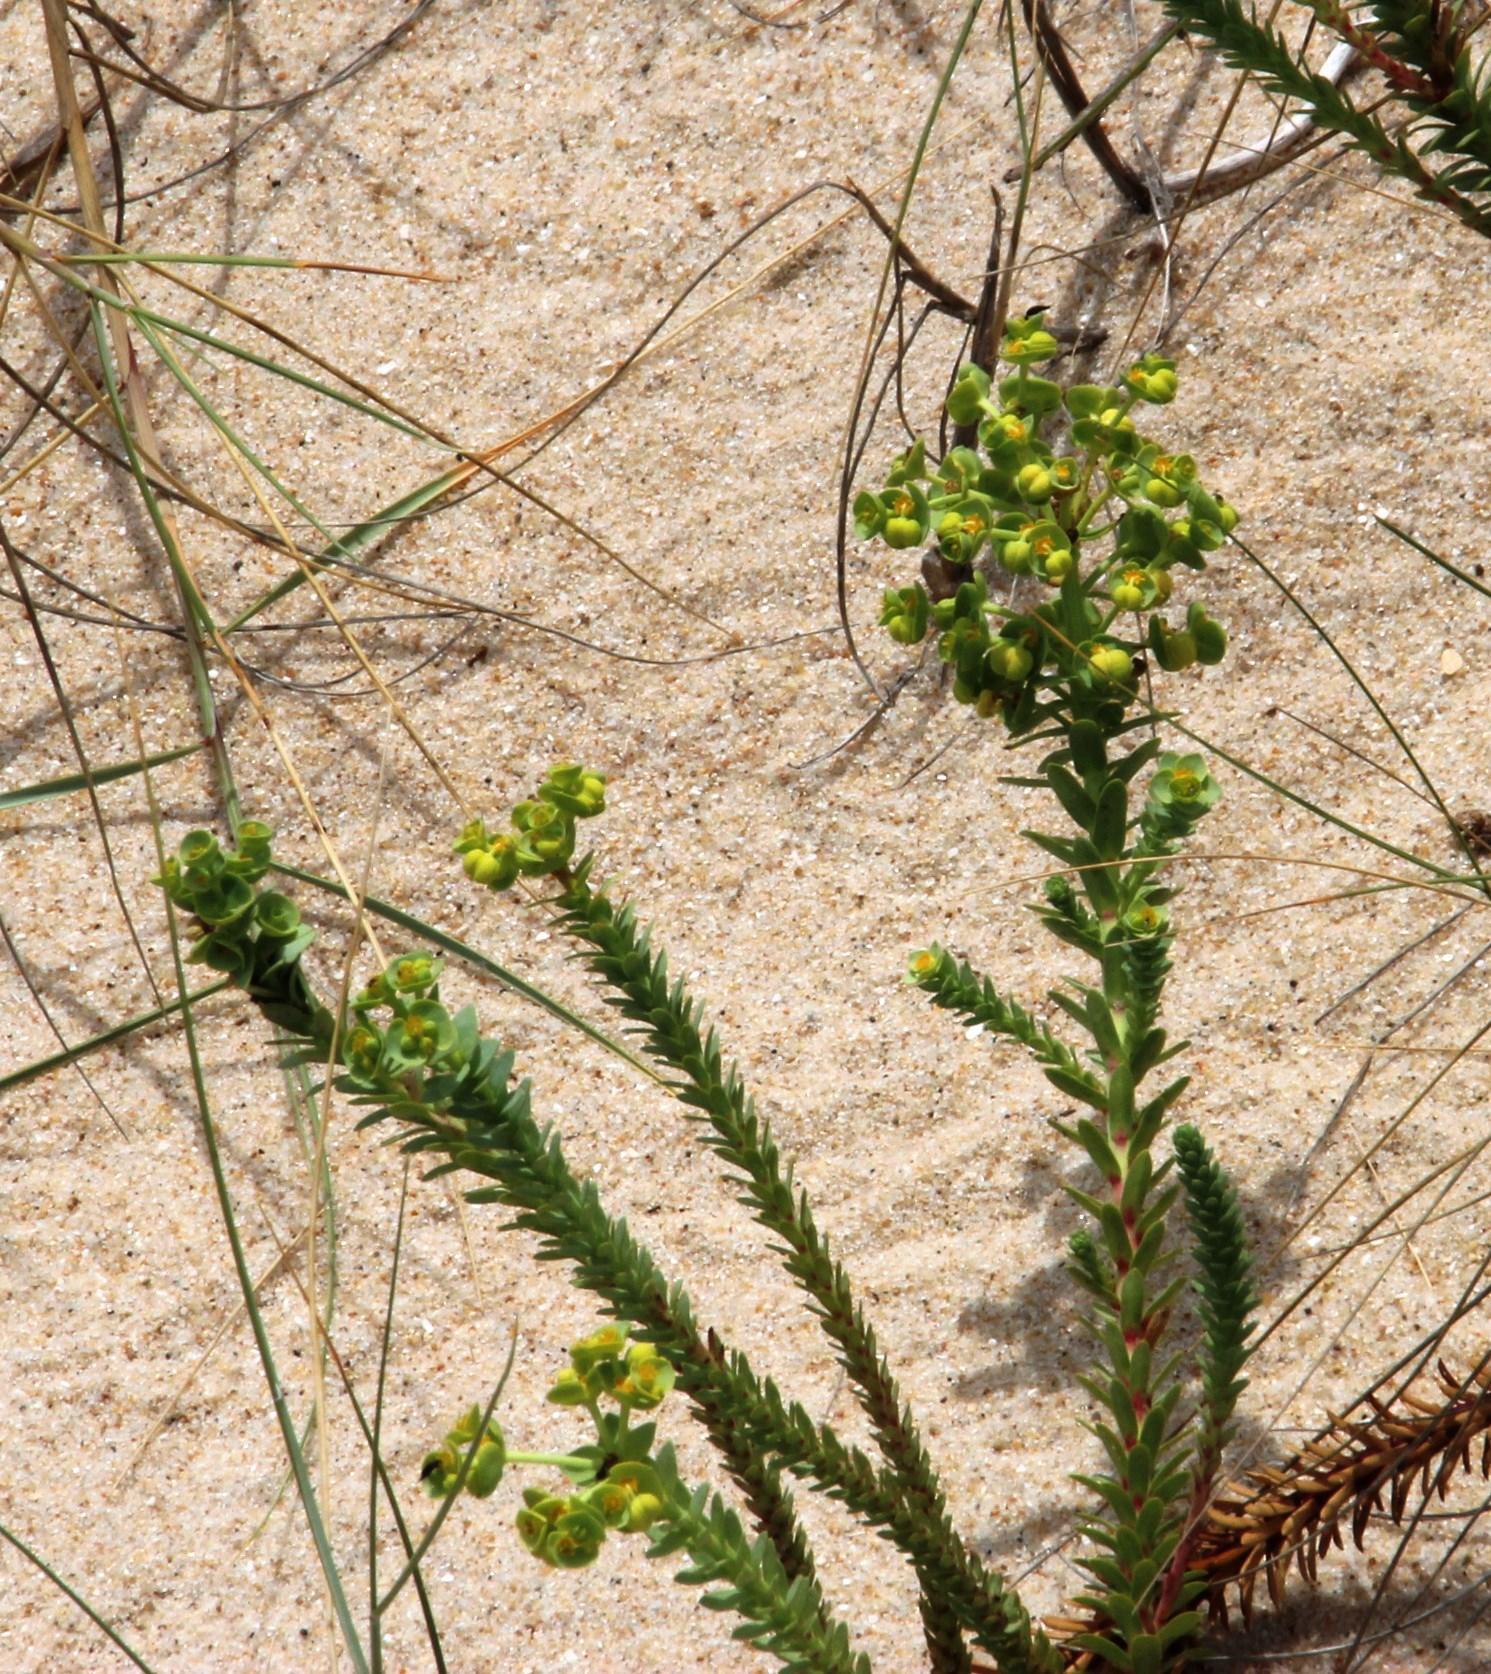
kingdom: Plantae
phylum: Tracheophyta
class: Magnoliopsida
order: Malpighiales
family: Euphorbiaceae
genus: Euphorbia
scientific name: Euphorbia paralias
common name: Sea spurge
